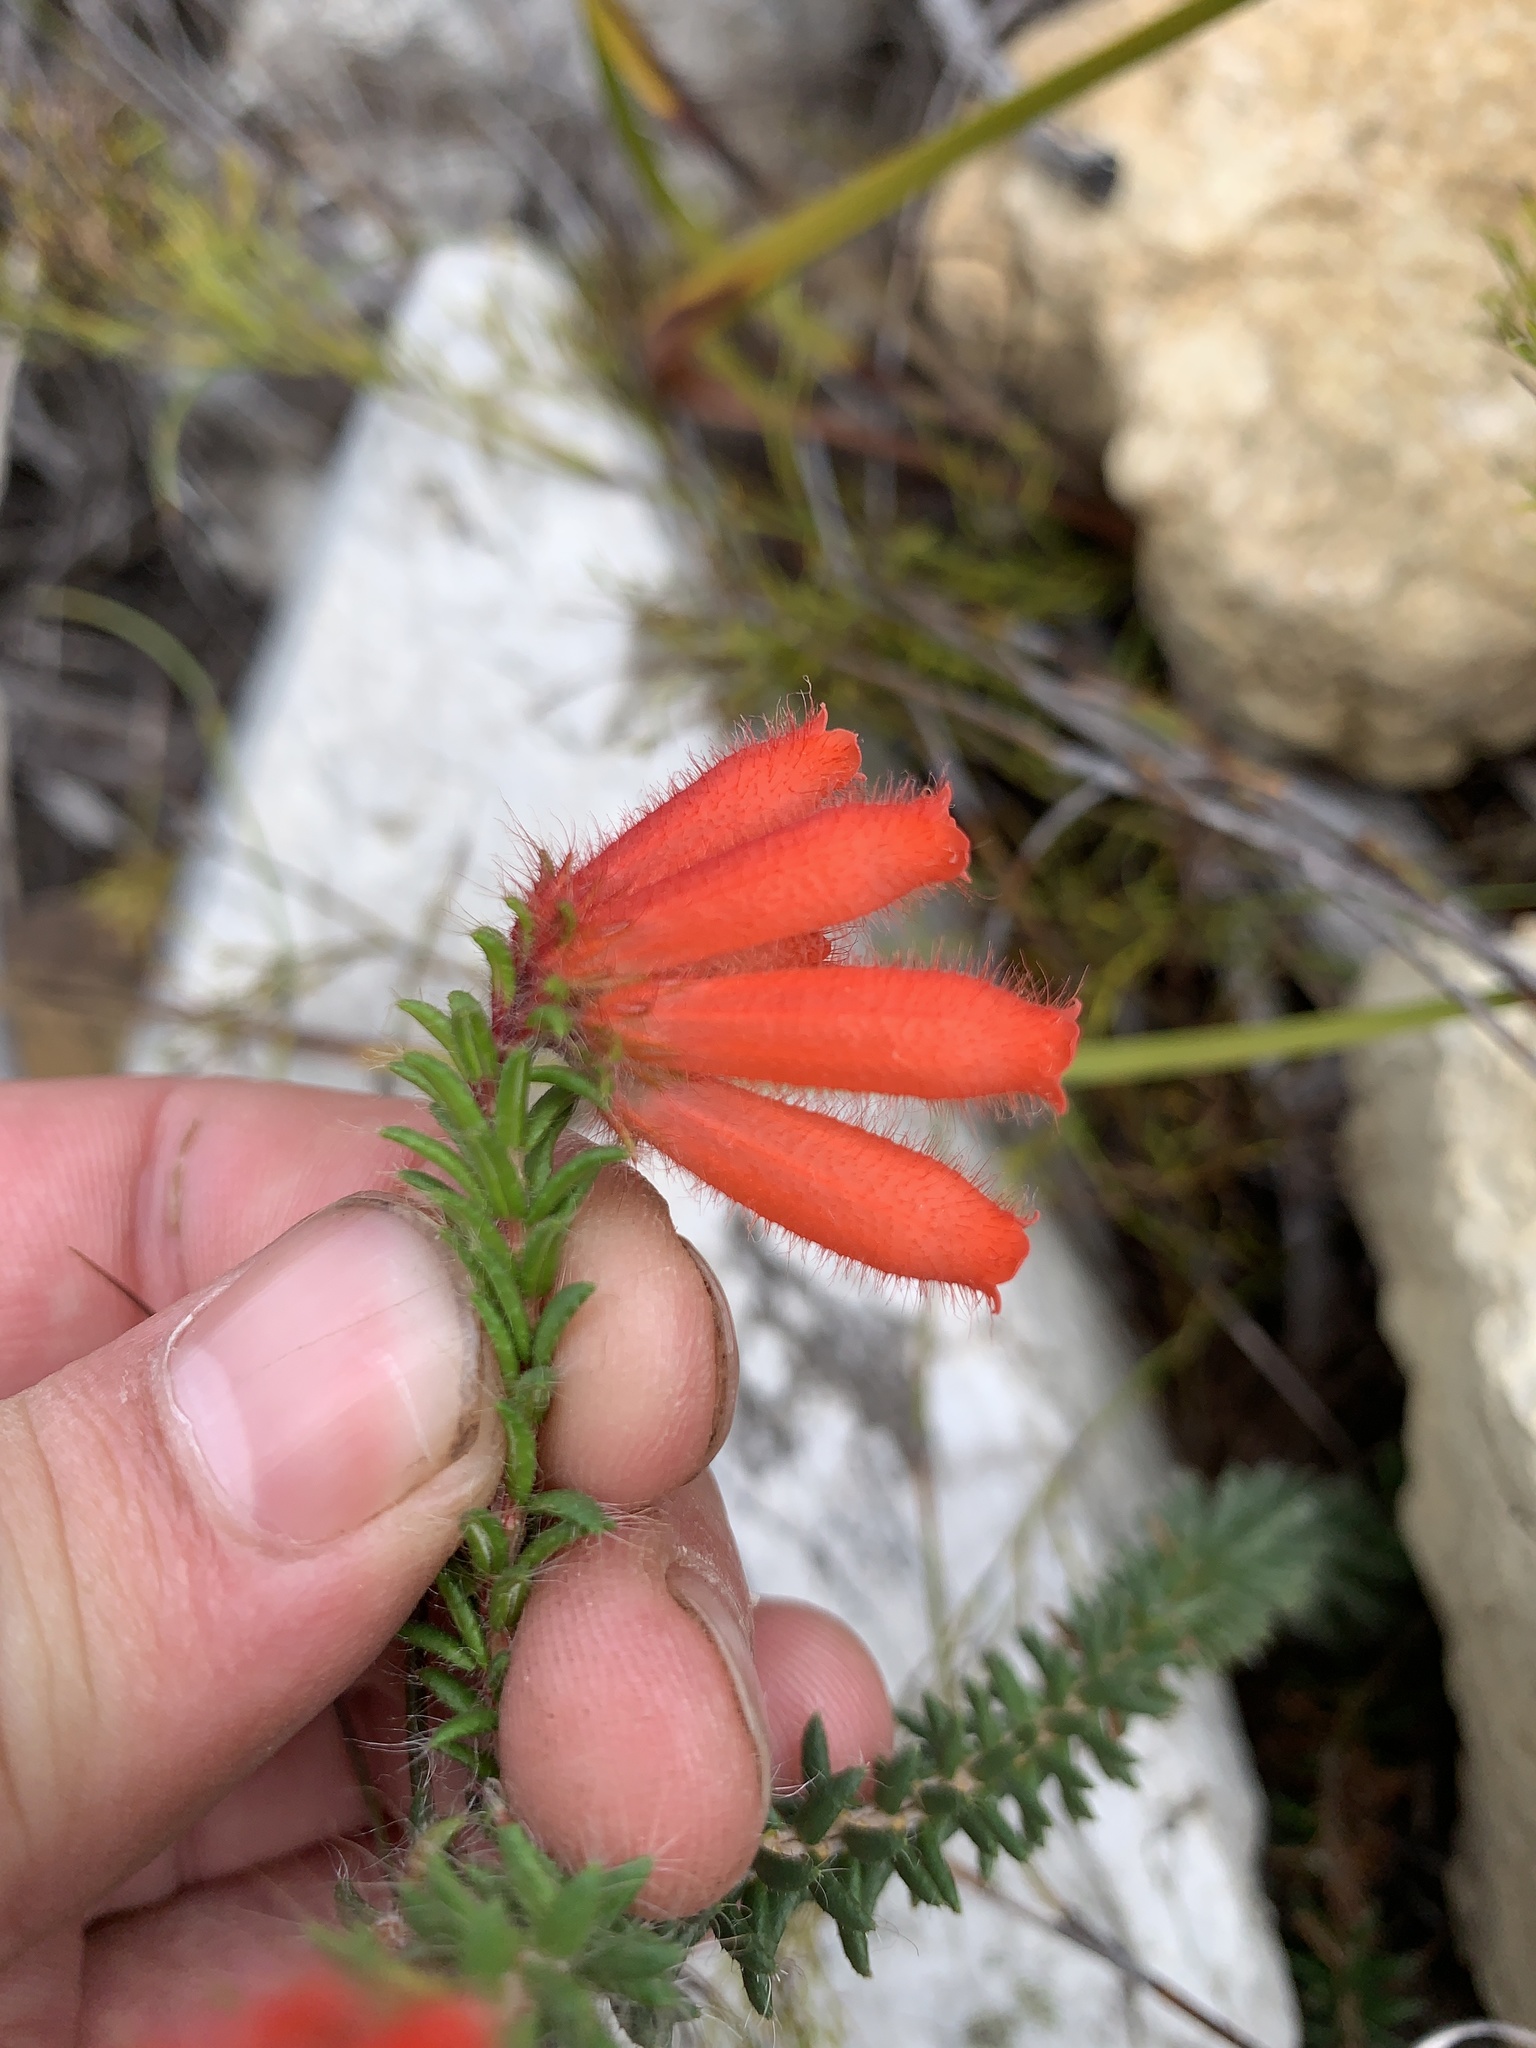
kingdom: Plantae
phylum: Tracheophyta
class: Magnoliopsida
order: Ericales
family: Ericaceae
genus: Erica
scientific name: Erica cerinthoides
